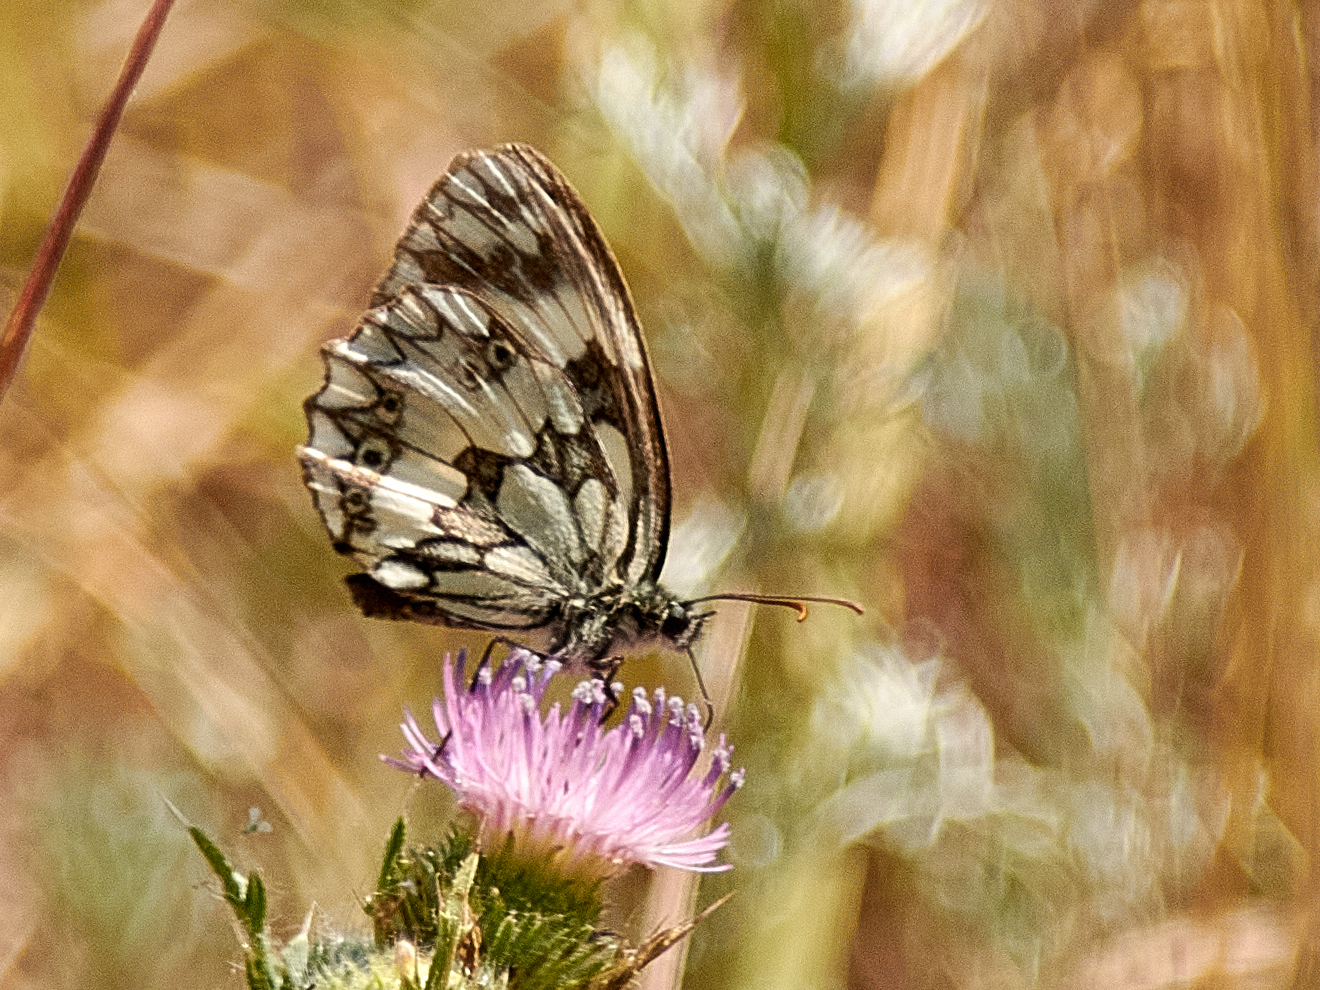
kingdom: Animalia
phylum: Arthropoda
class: Insecta
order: Lepidoptera
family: Nymphalidae
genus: Melanargia
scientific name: Melanargia galathea
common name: Marbled white
